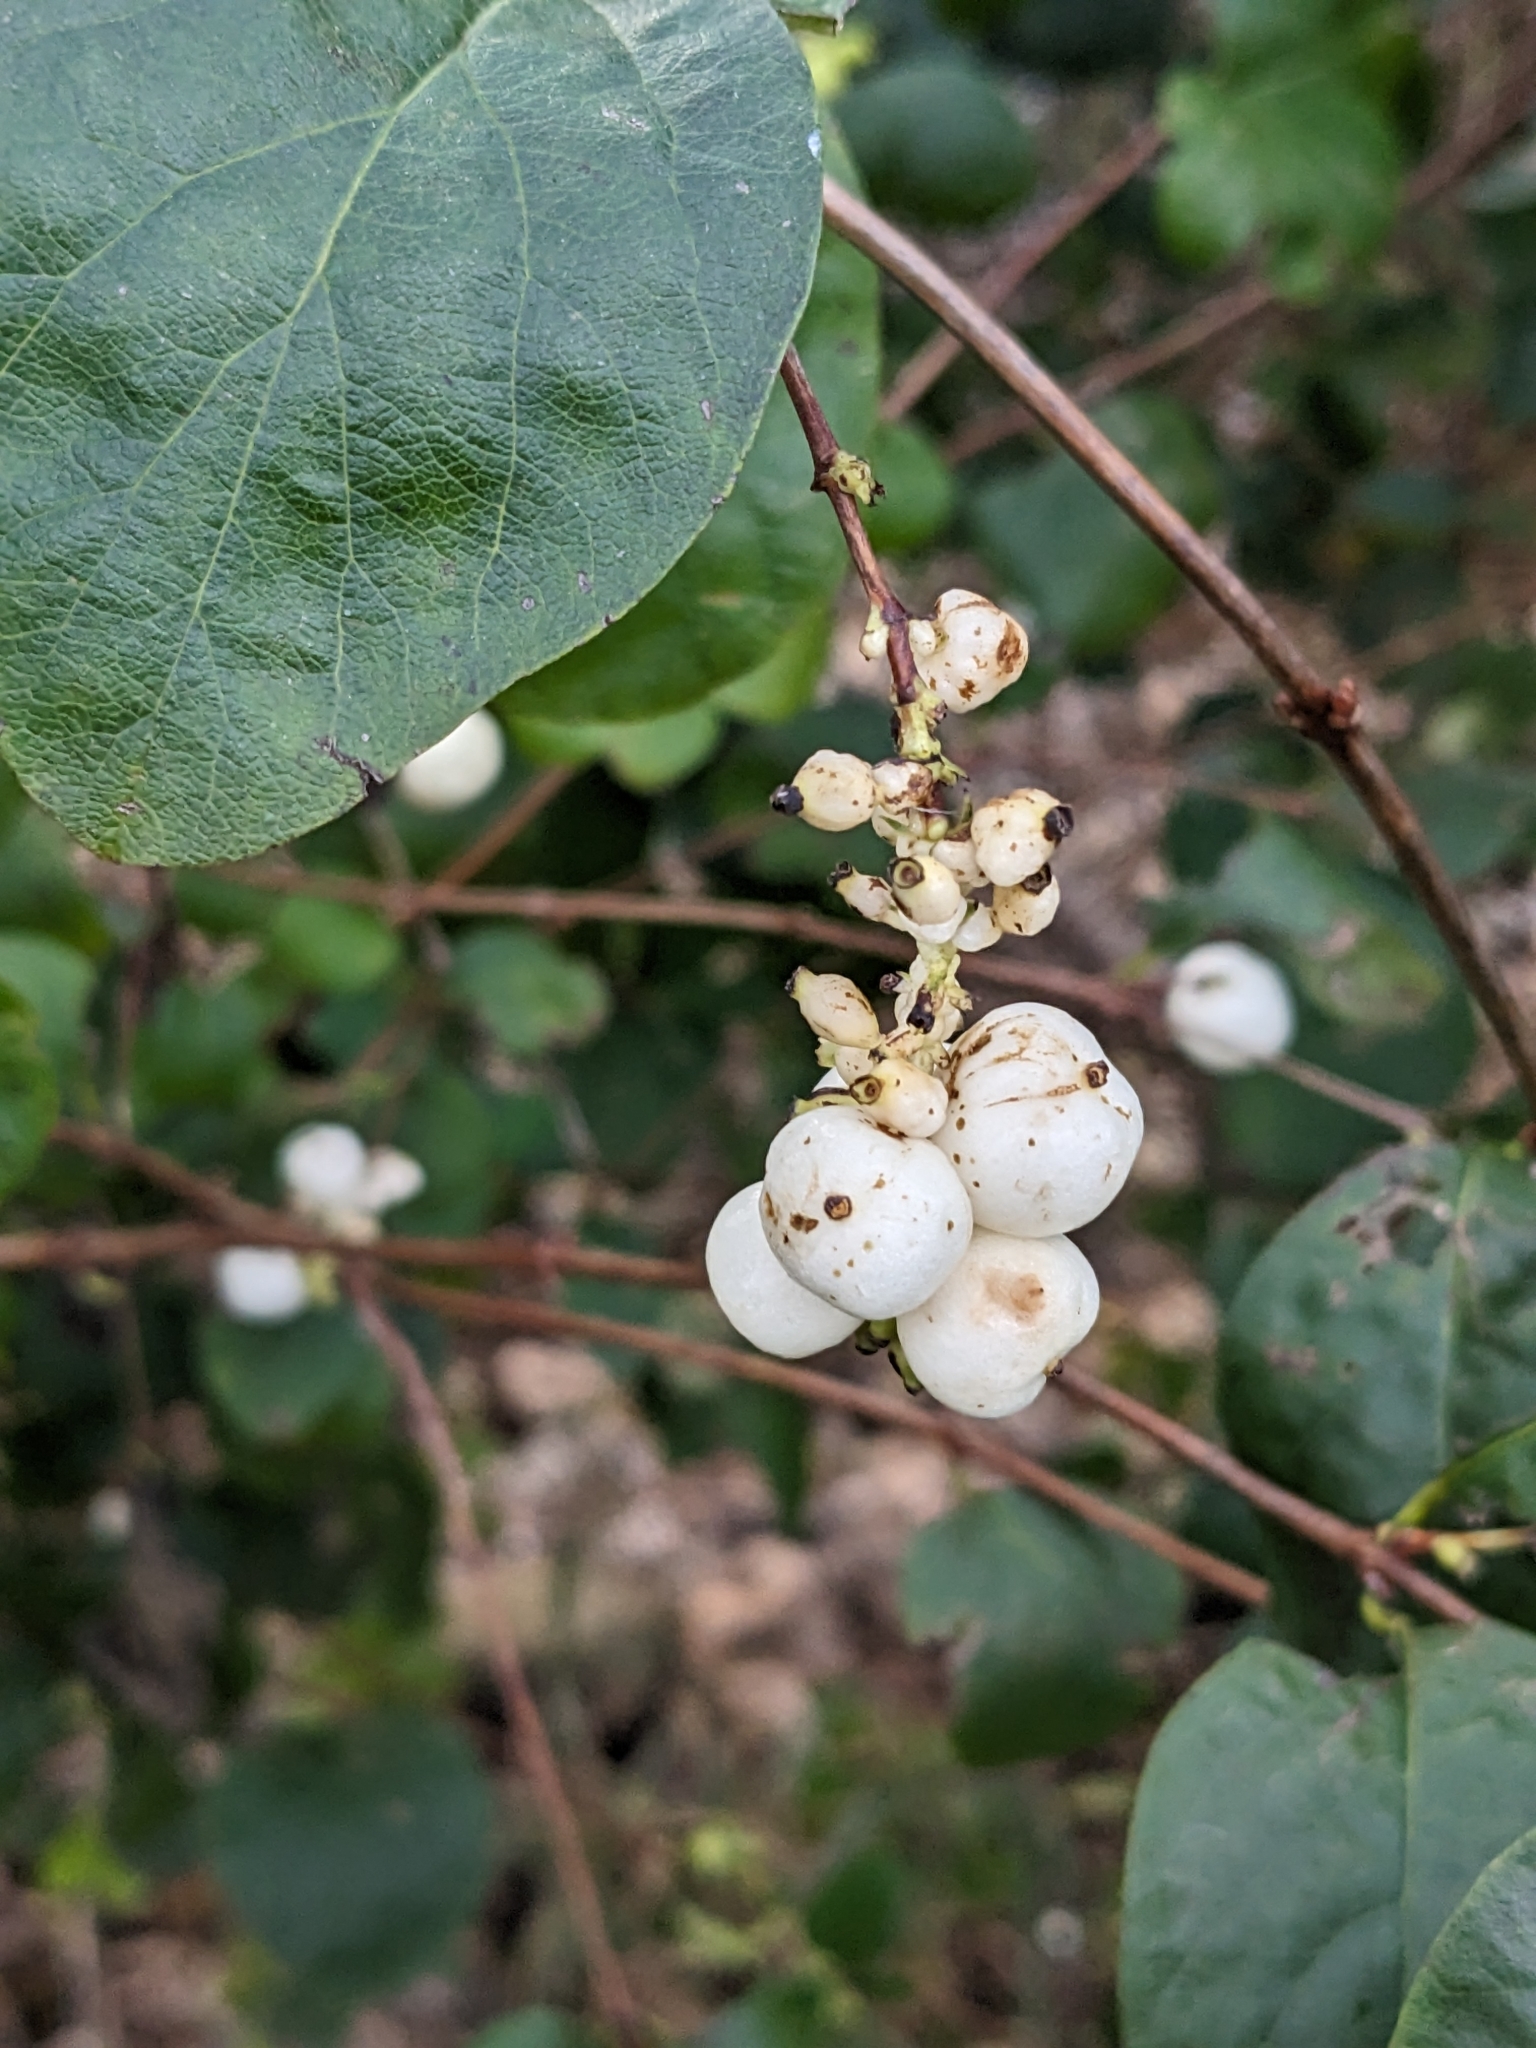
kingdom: Plantae
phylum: Tracheophyta
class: Magnoliopsida
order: Dipsacales
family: Caprifoliaceae
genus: Symphoricarpos
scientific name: Symphoricarpos albus
